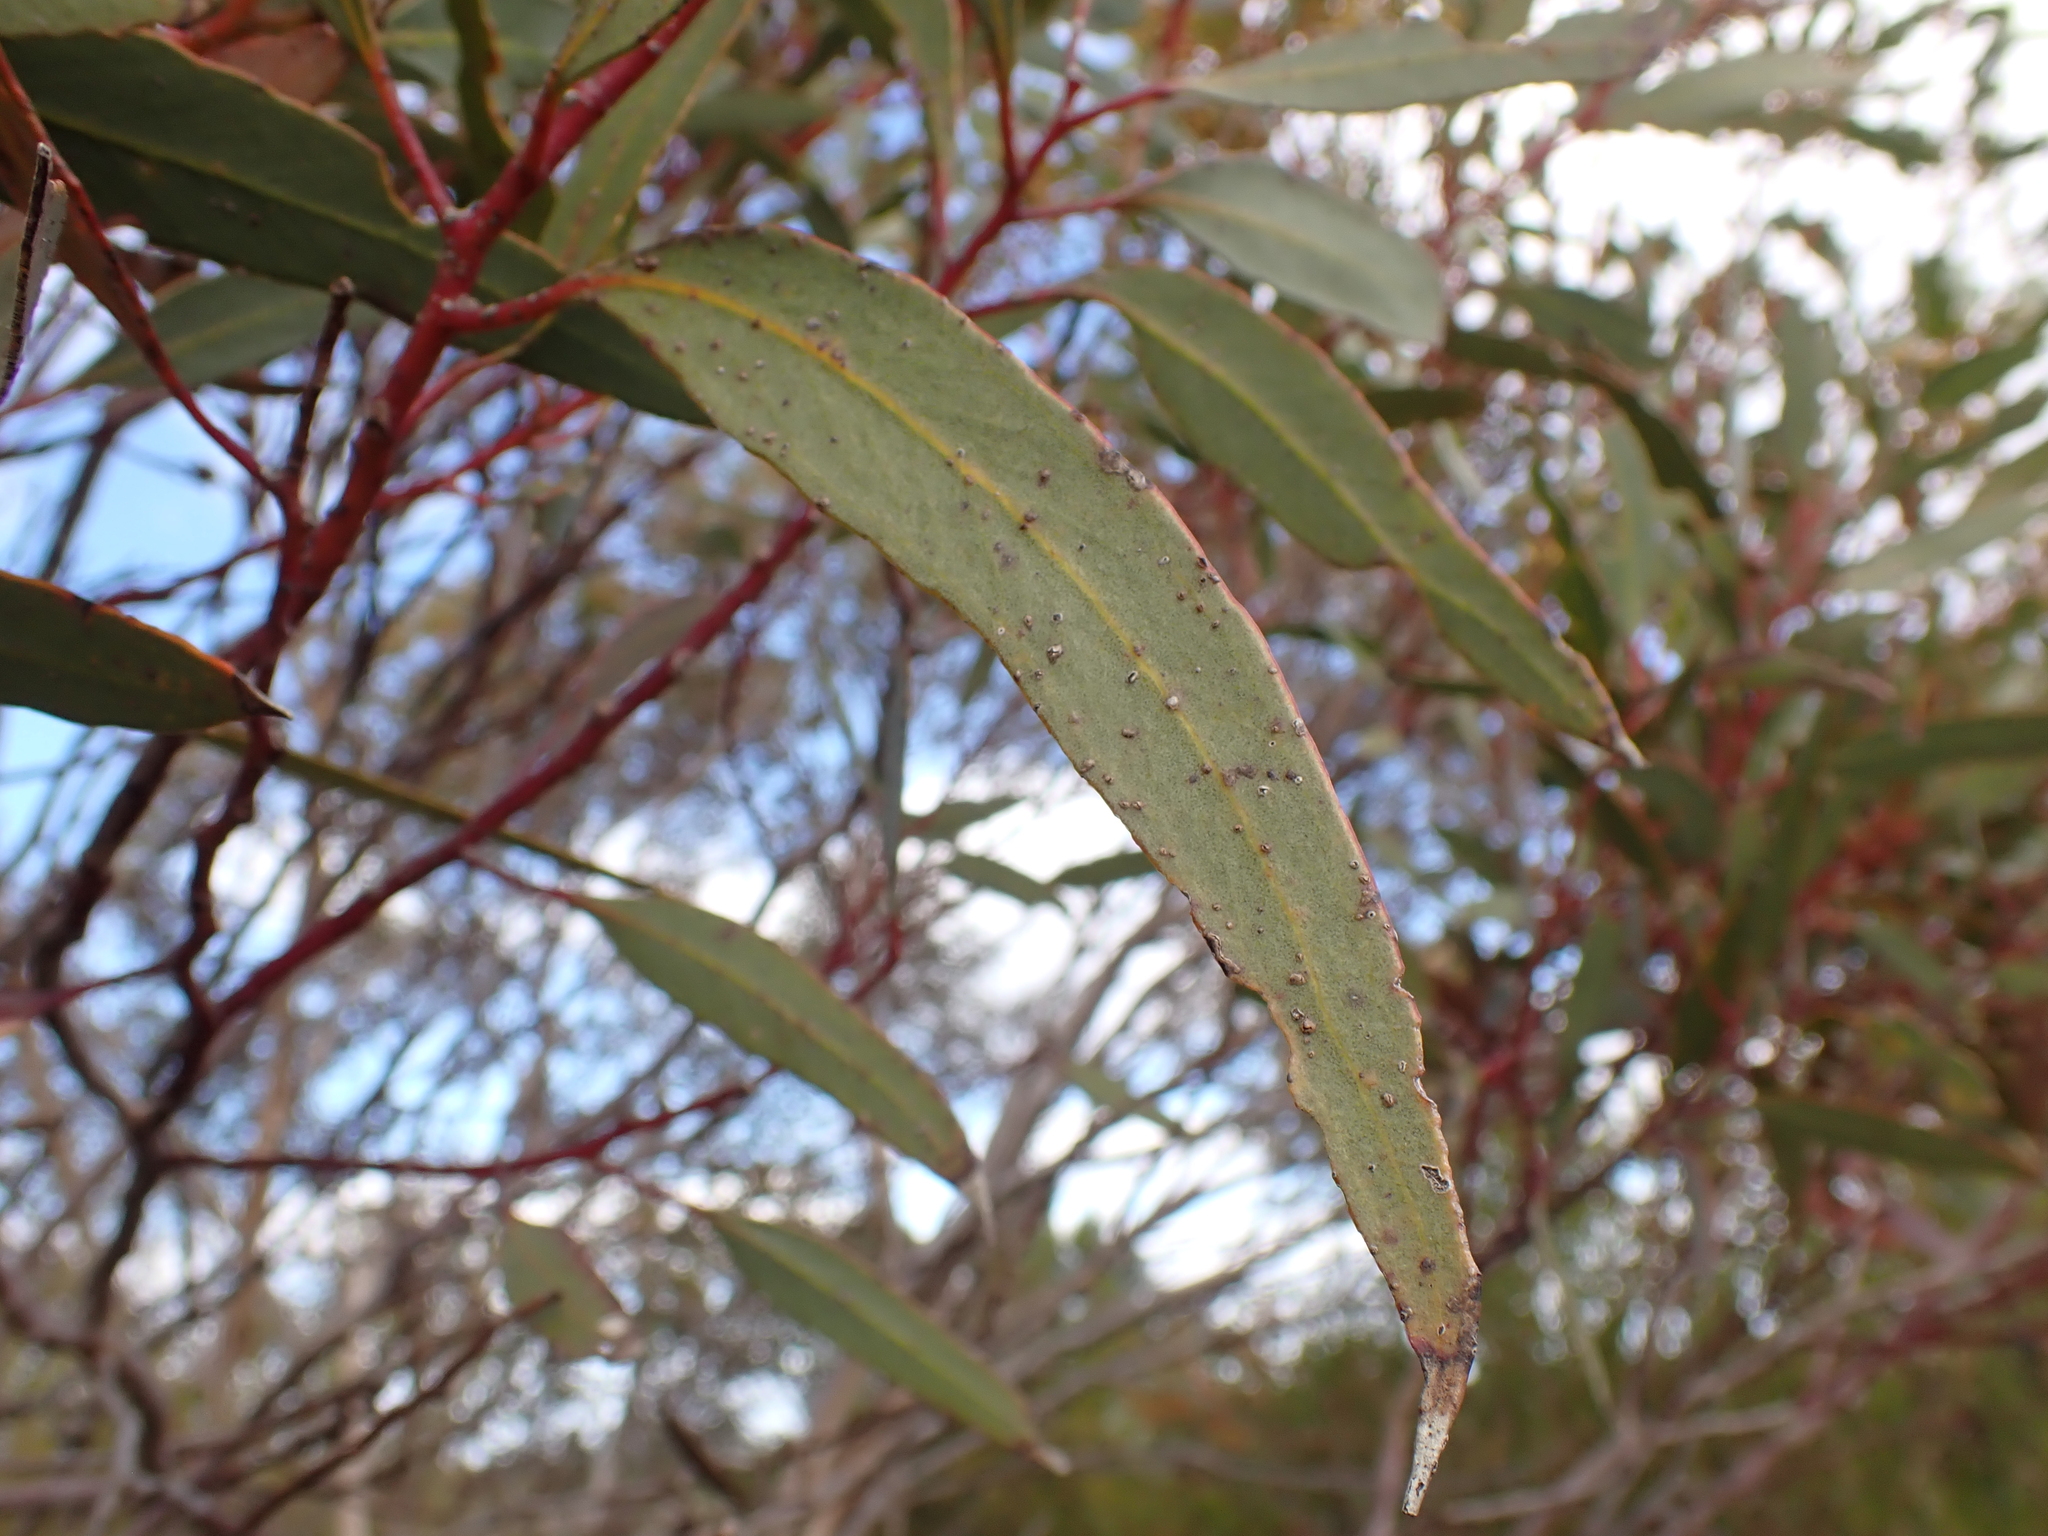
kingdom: Plantae
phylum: Tracheophyta
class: Magnoliopsida
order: Myrtales
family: Myrtaceae
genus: Eucalyptus
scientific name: Eucalyptus dumosa
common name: Dumosa mallee
